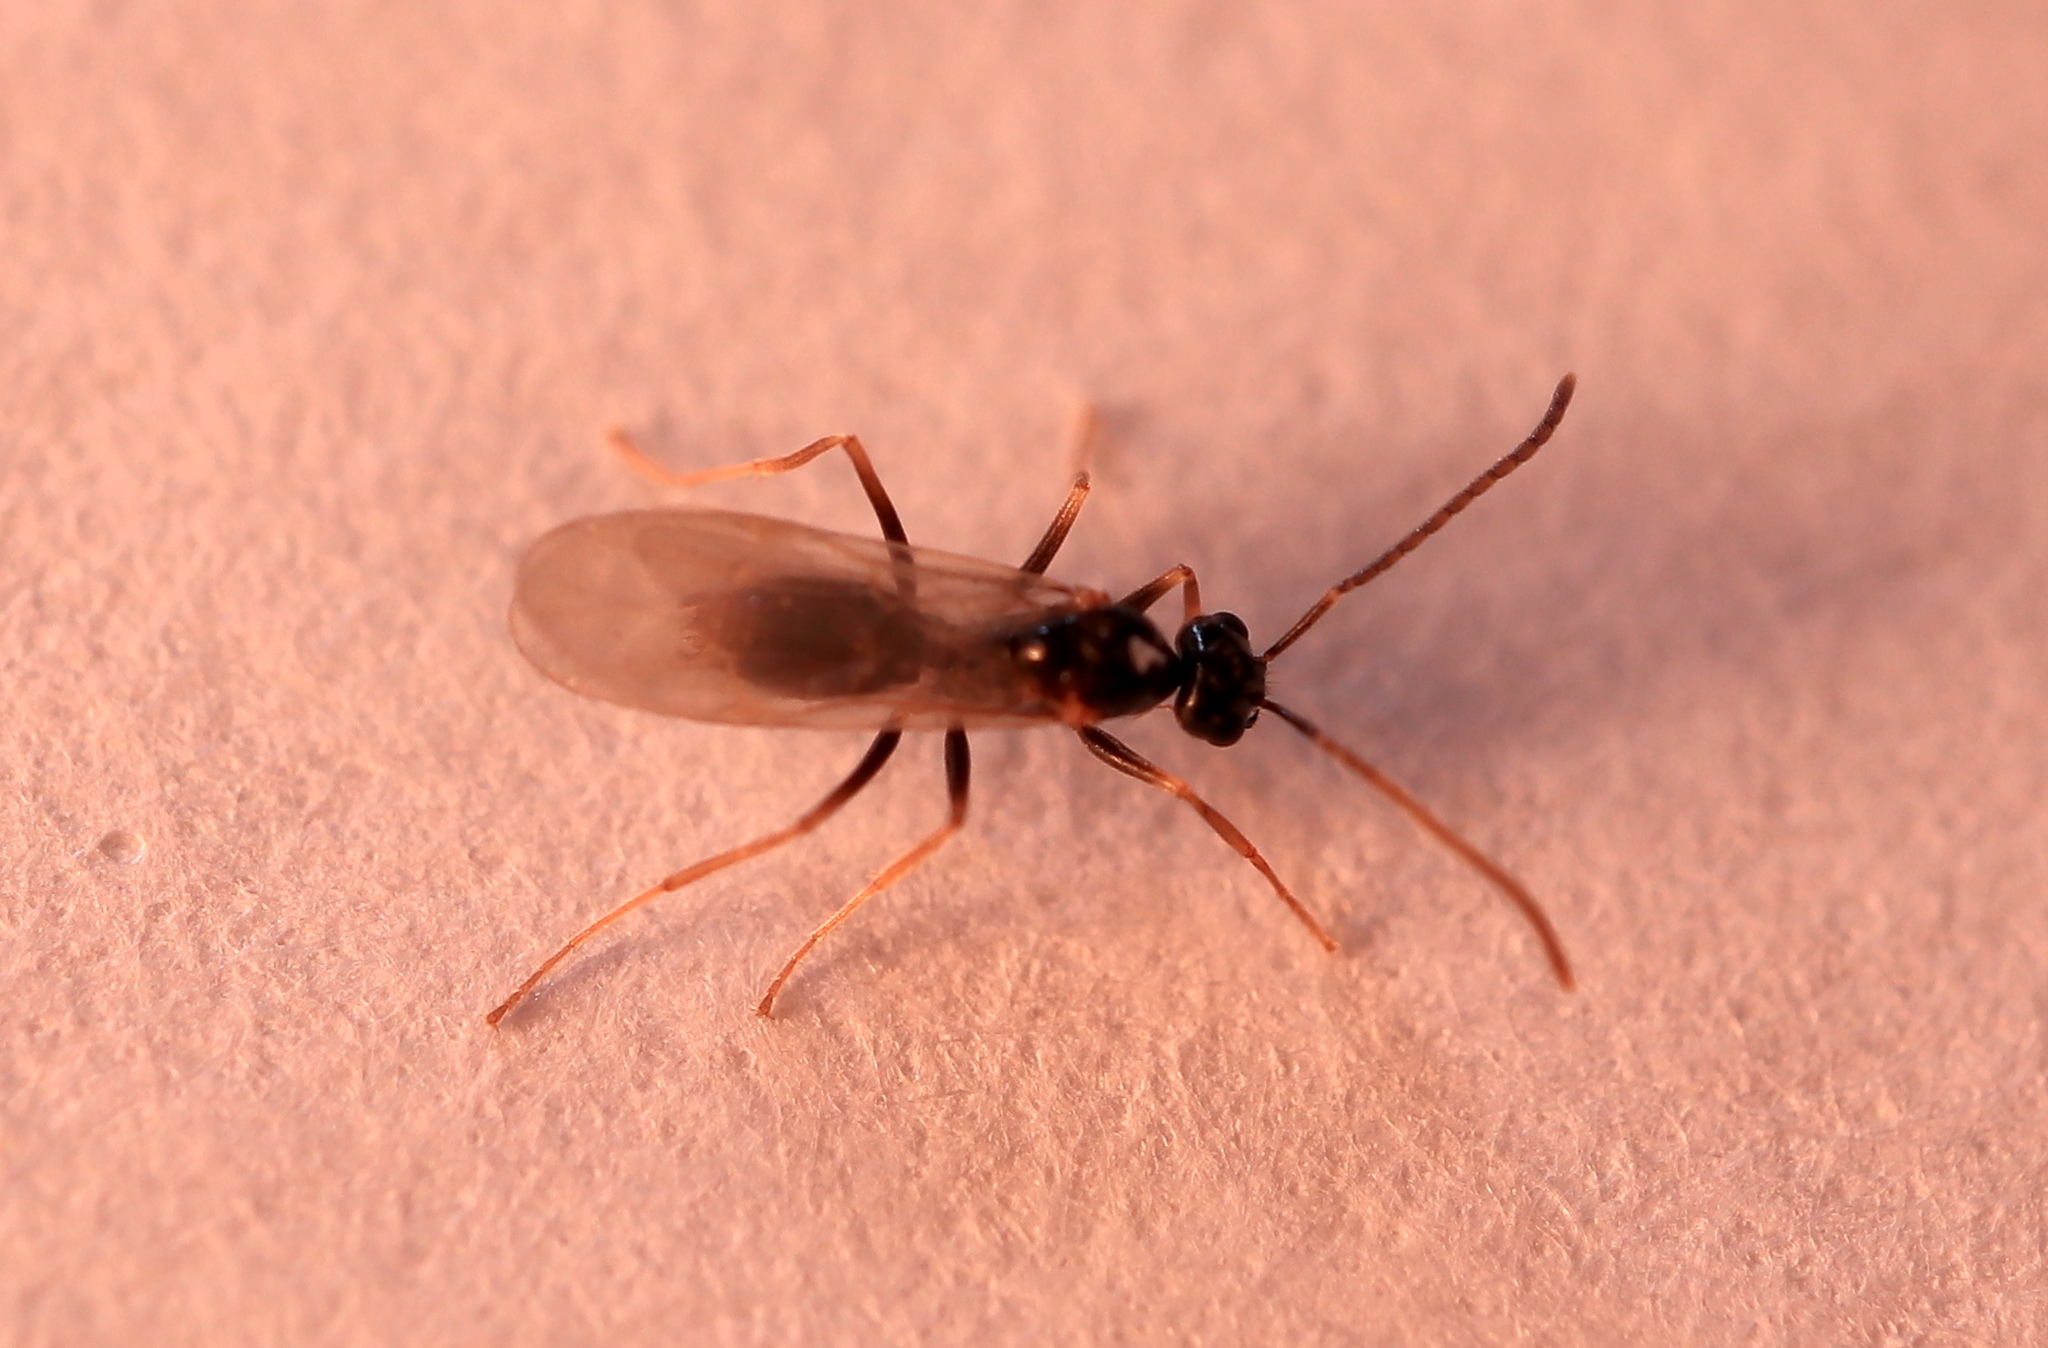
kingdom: Animalia
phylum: Arthropoda
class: Insecta
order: Hymenoptera
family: Formicidae
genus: Prenolepis
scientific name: Prenolepis imparis
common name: Small honey ant
